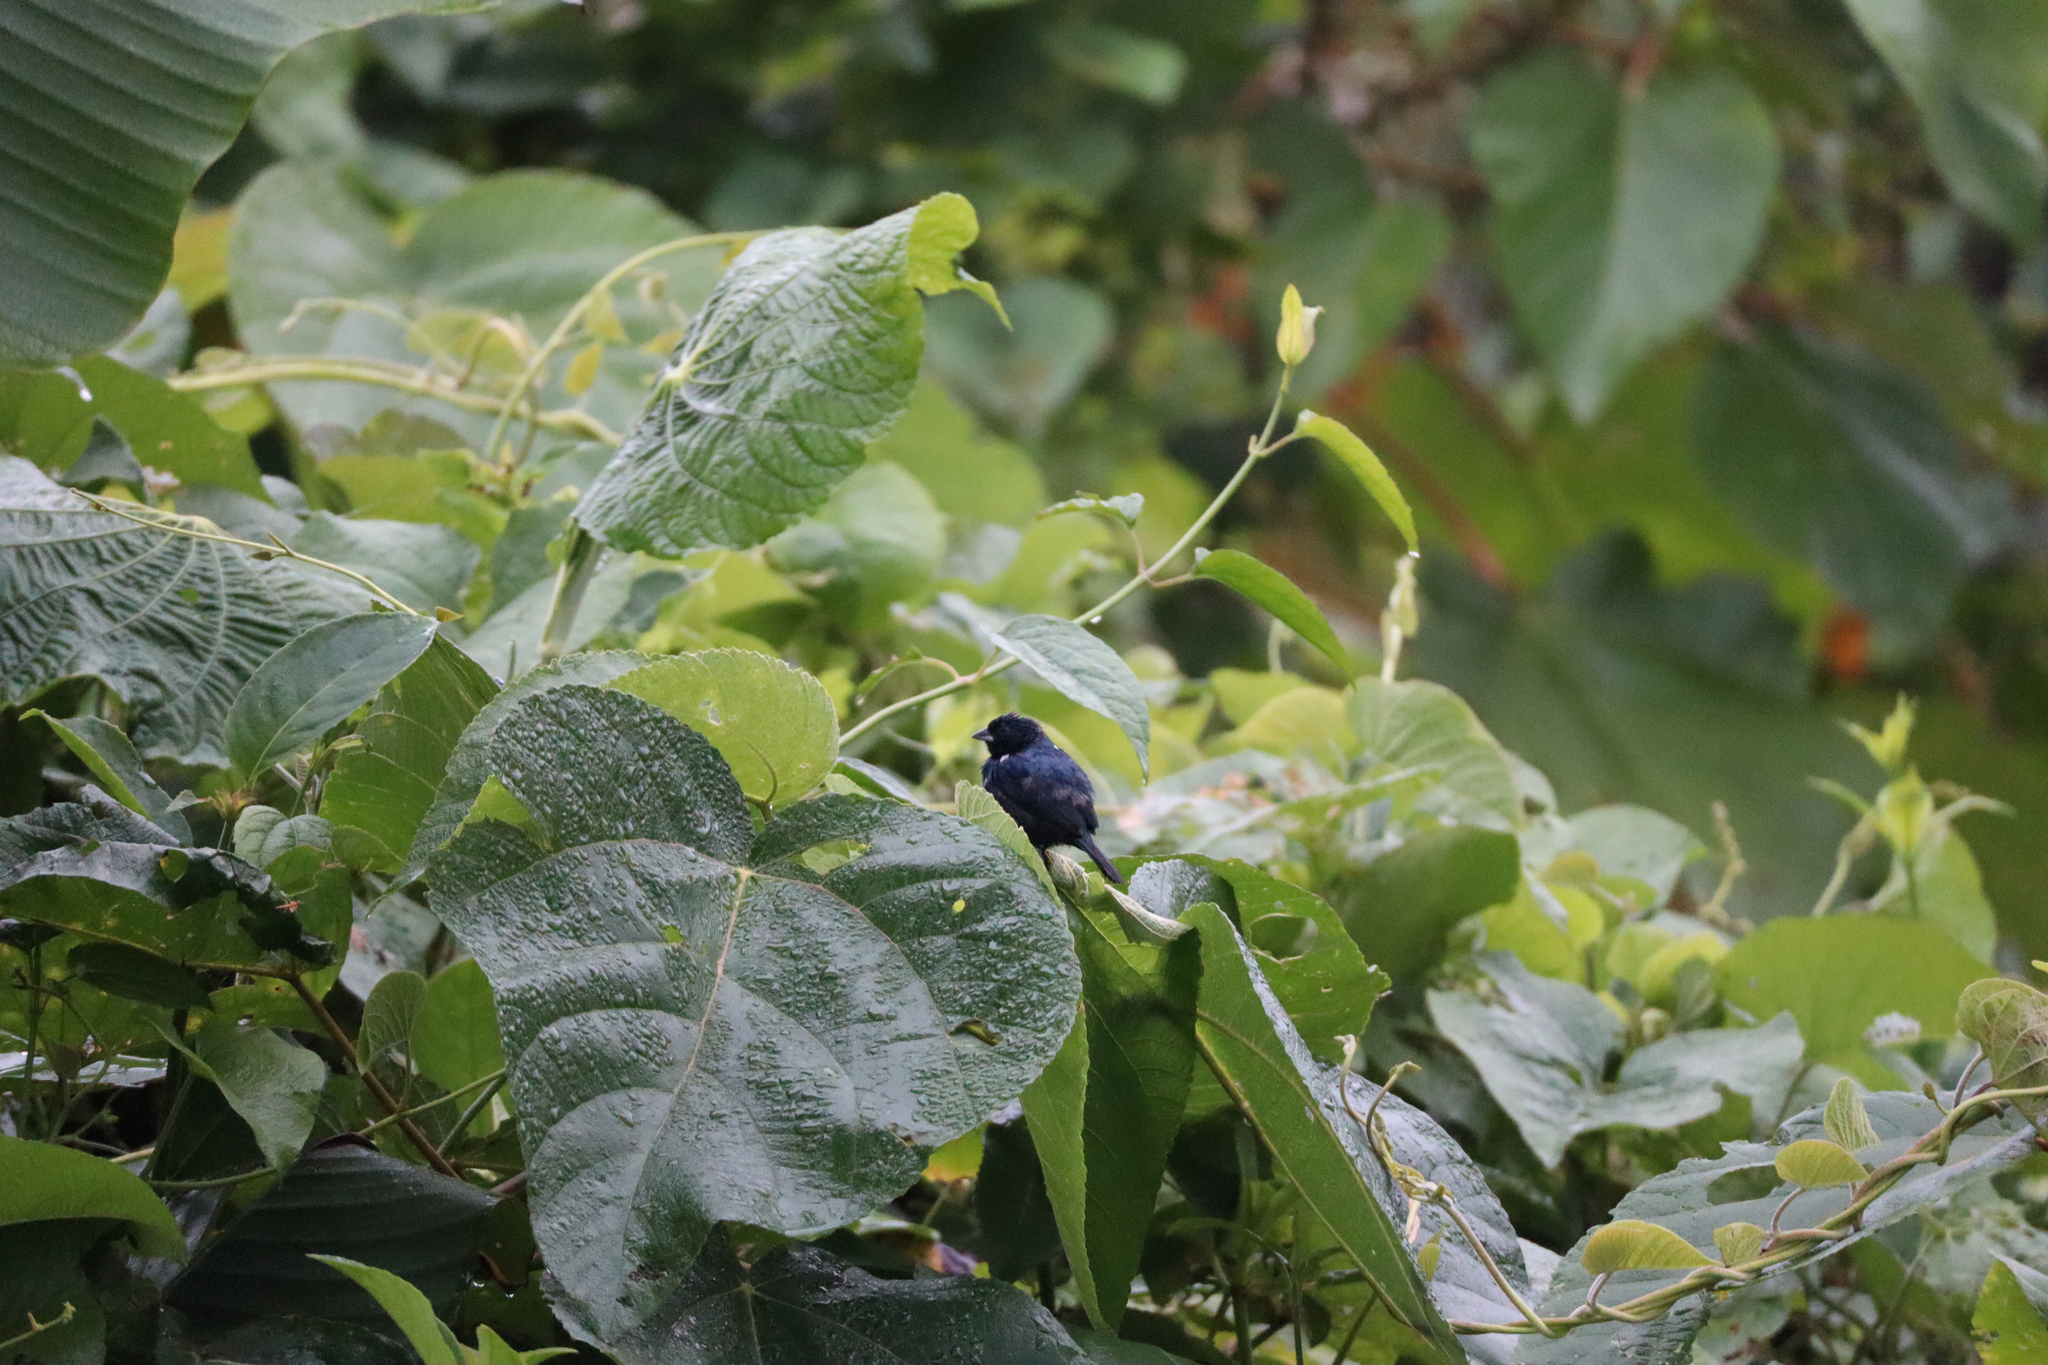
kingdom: Animalia
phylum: Chordata
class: Aves
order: Passeriformes
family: Thraupidae
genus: Volatinia
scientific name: Volatinia jacarina
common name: Blue-black grassquit
